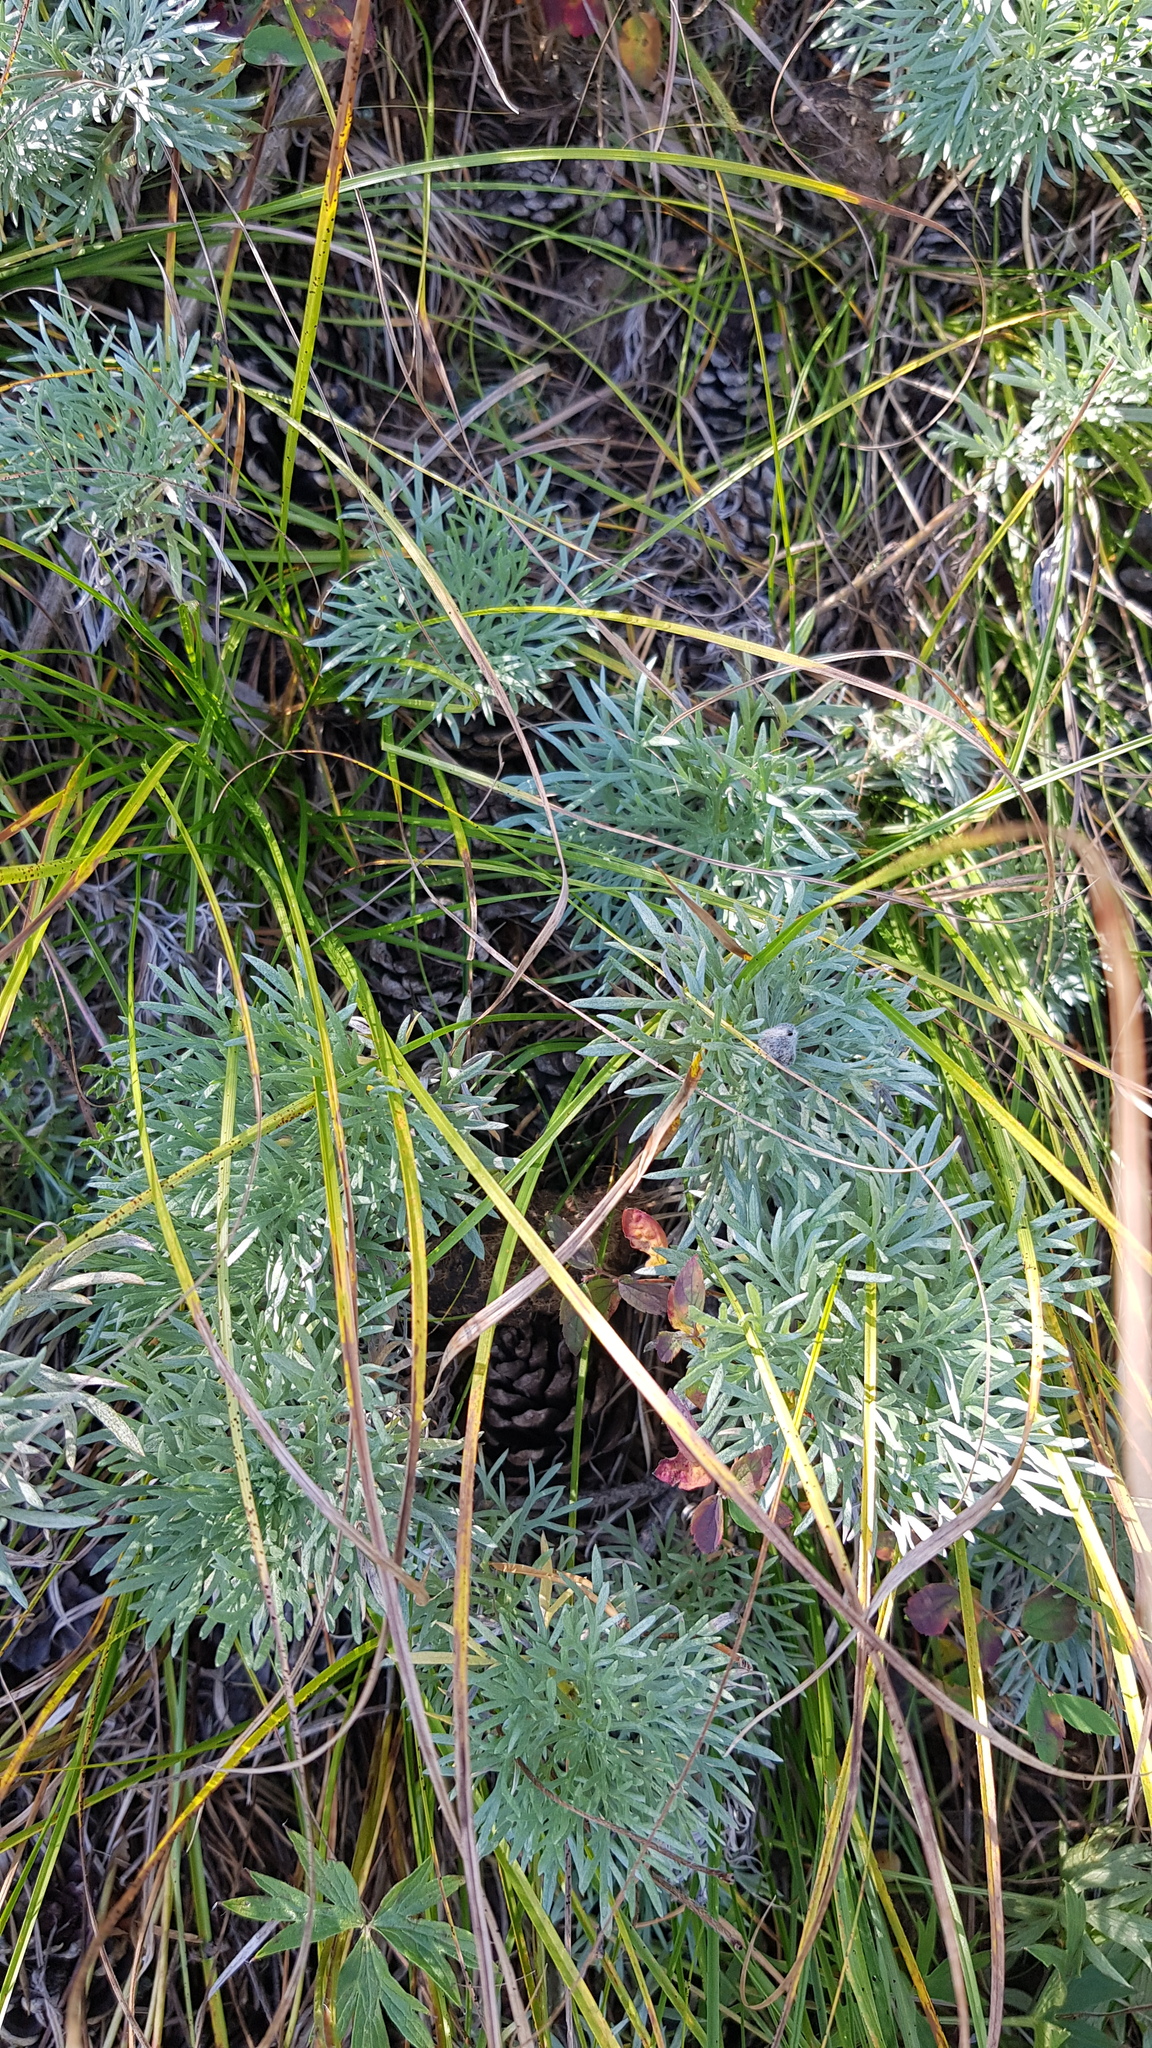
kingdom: Plantae
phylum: Tracheophyta
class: Magnoliopsida
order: Asterales
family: Asteraceae
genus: Artemisia
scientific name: Artemisia sericea
